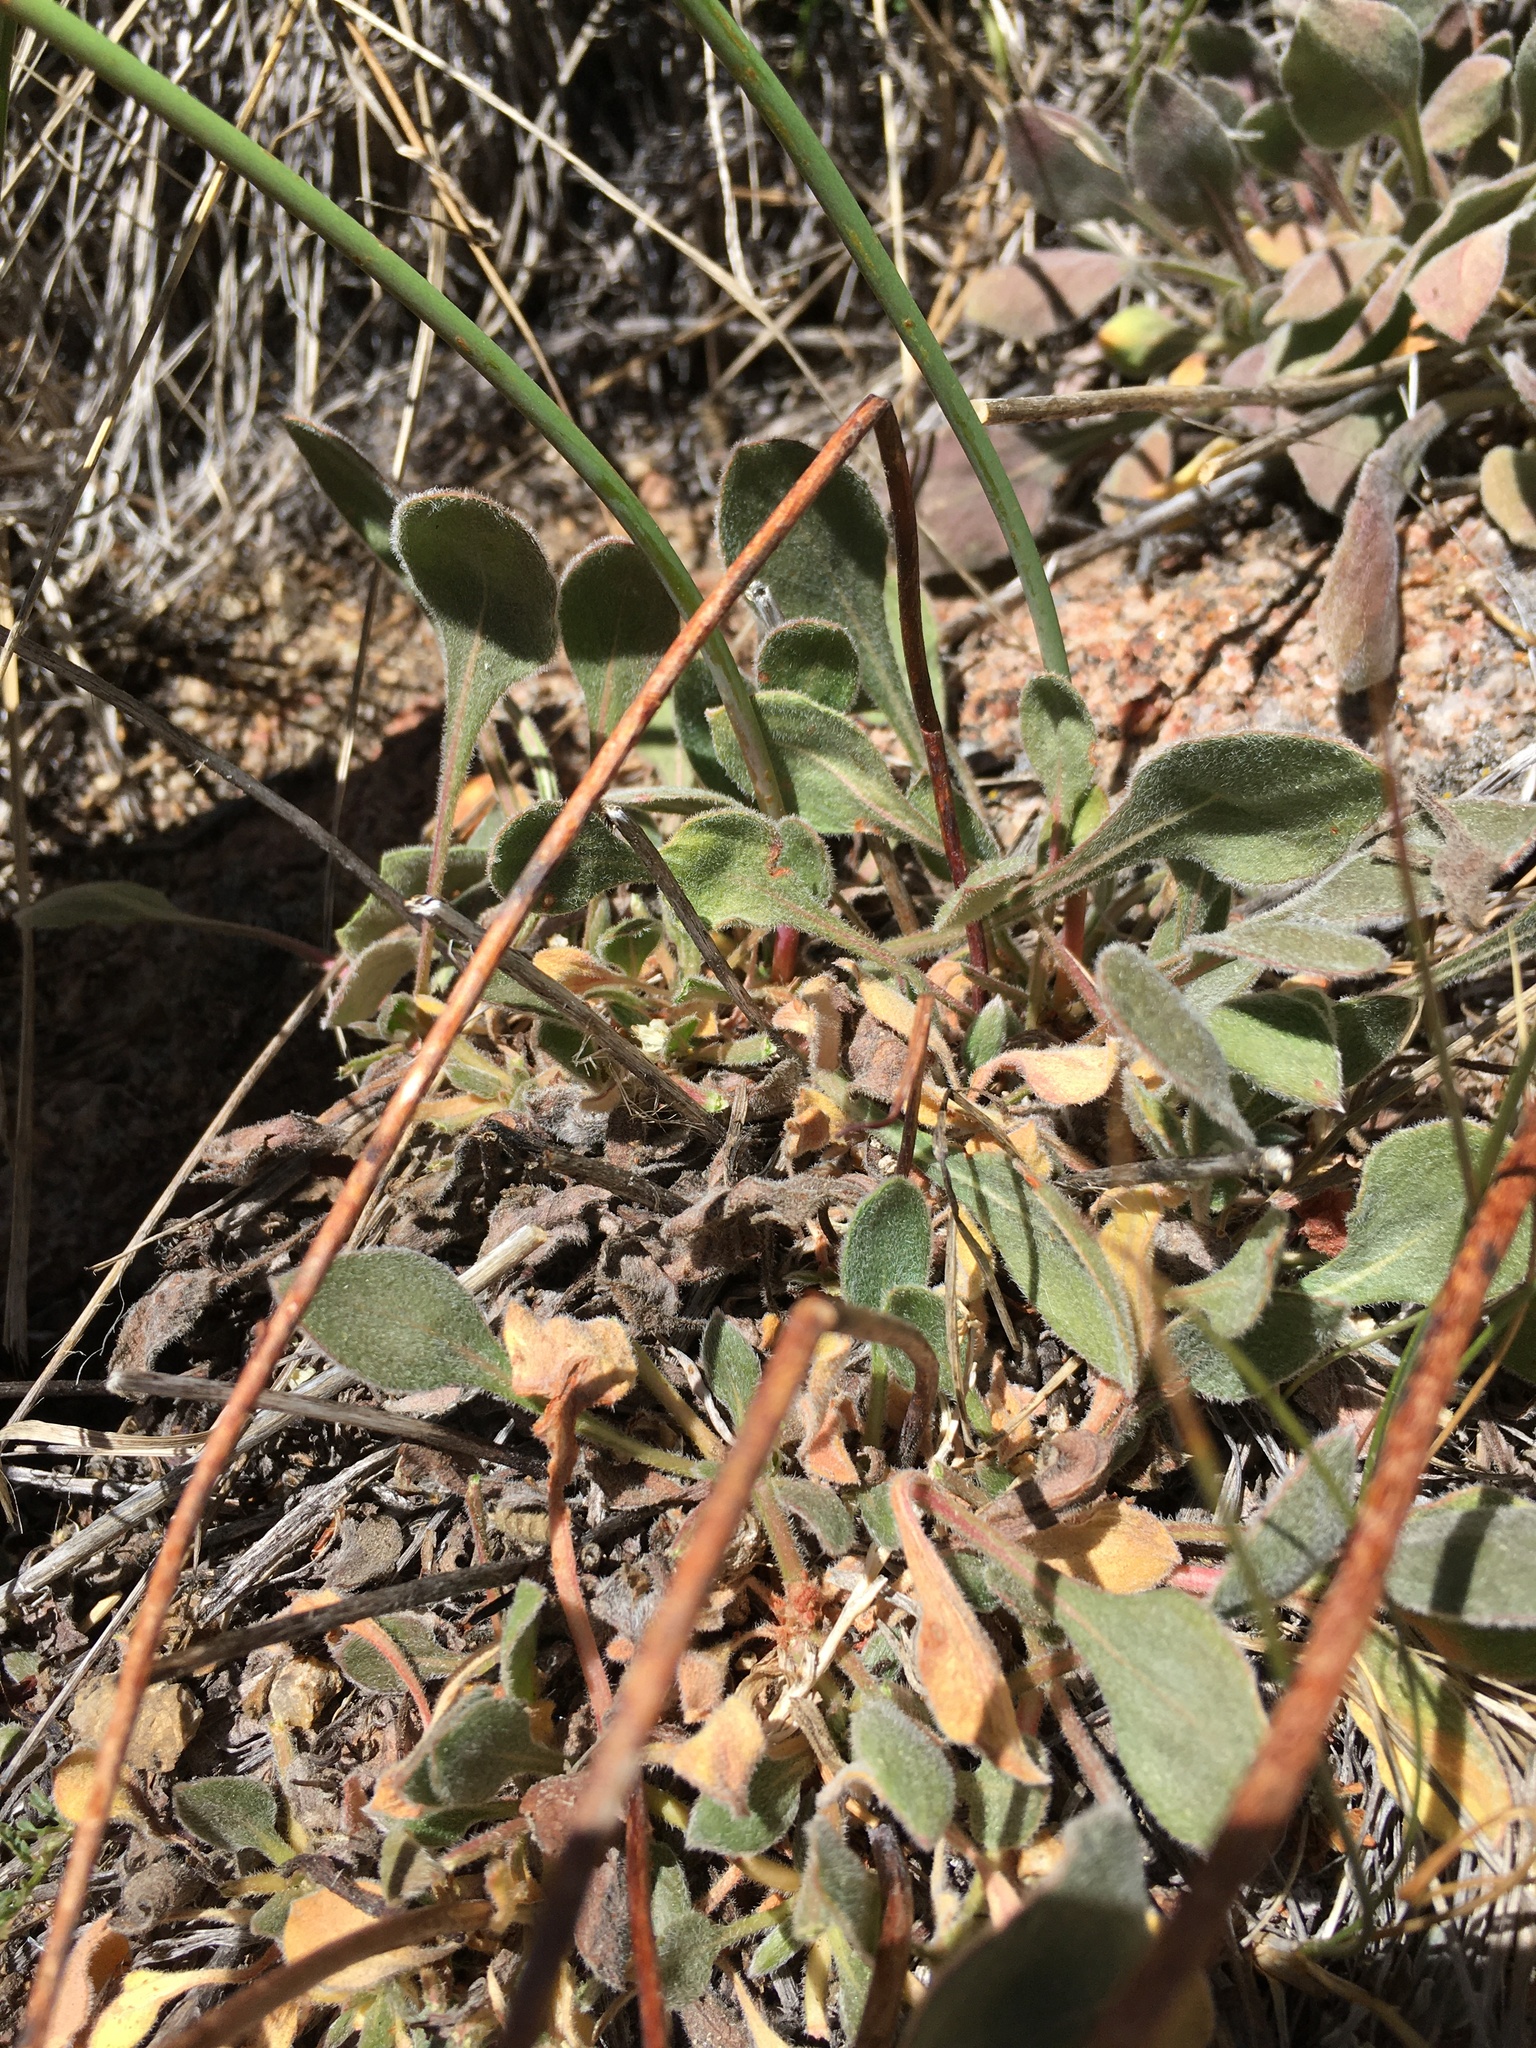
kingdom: Plantae
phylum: Tracheophyta
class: Magnoliopsida
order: Caryophyllales
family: Polygonaceae
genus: Eriogonum
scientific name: Eriogonum latens
